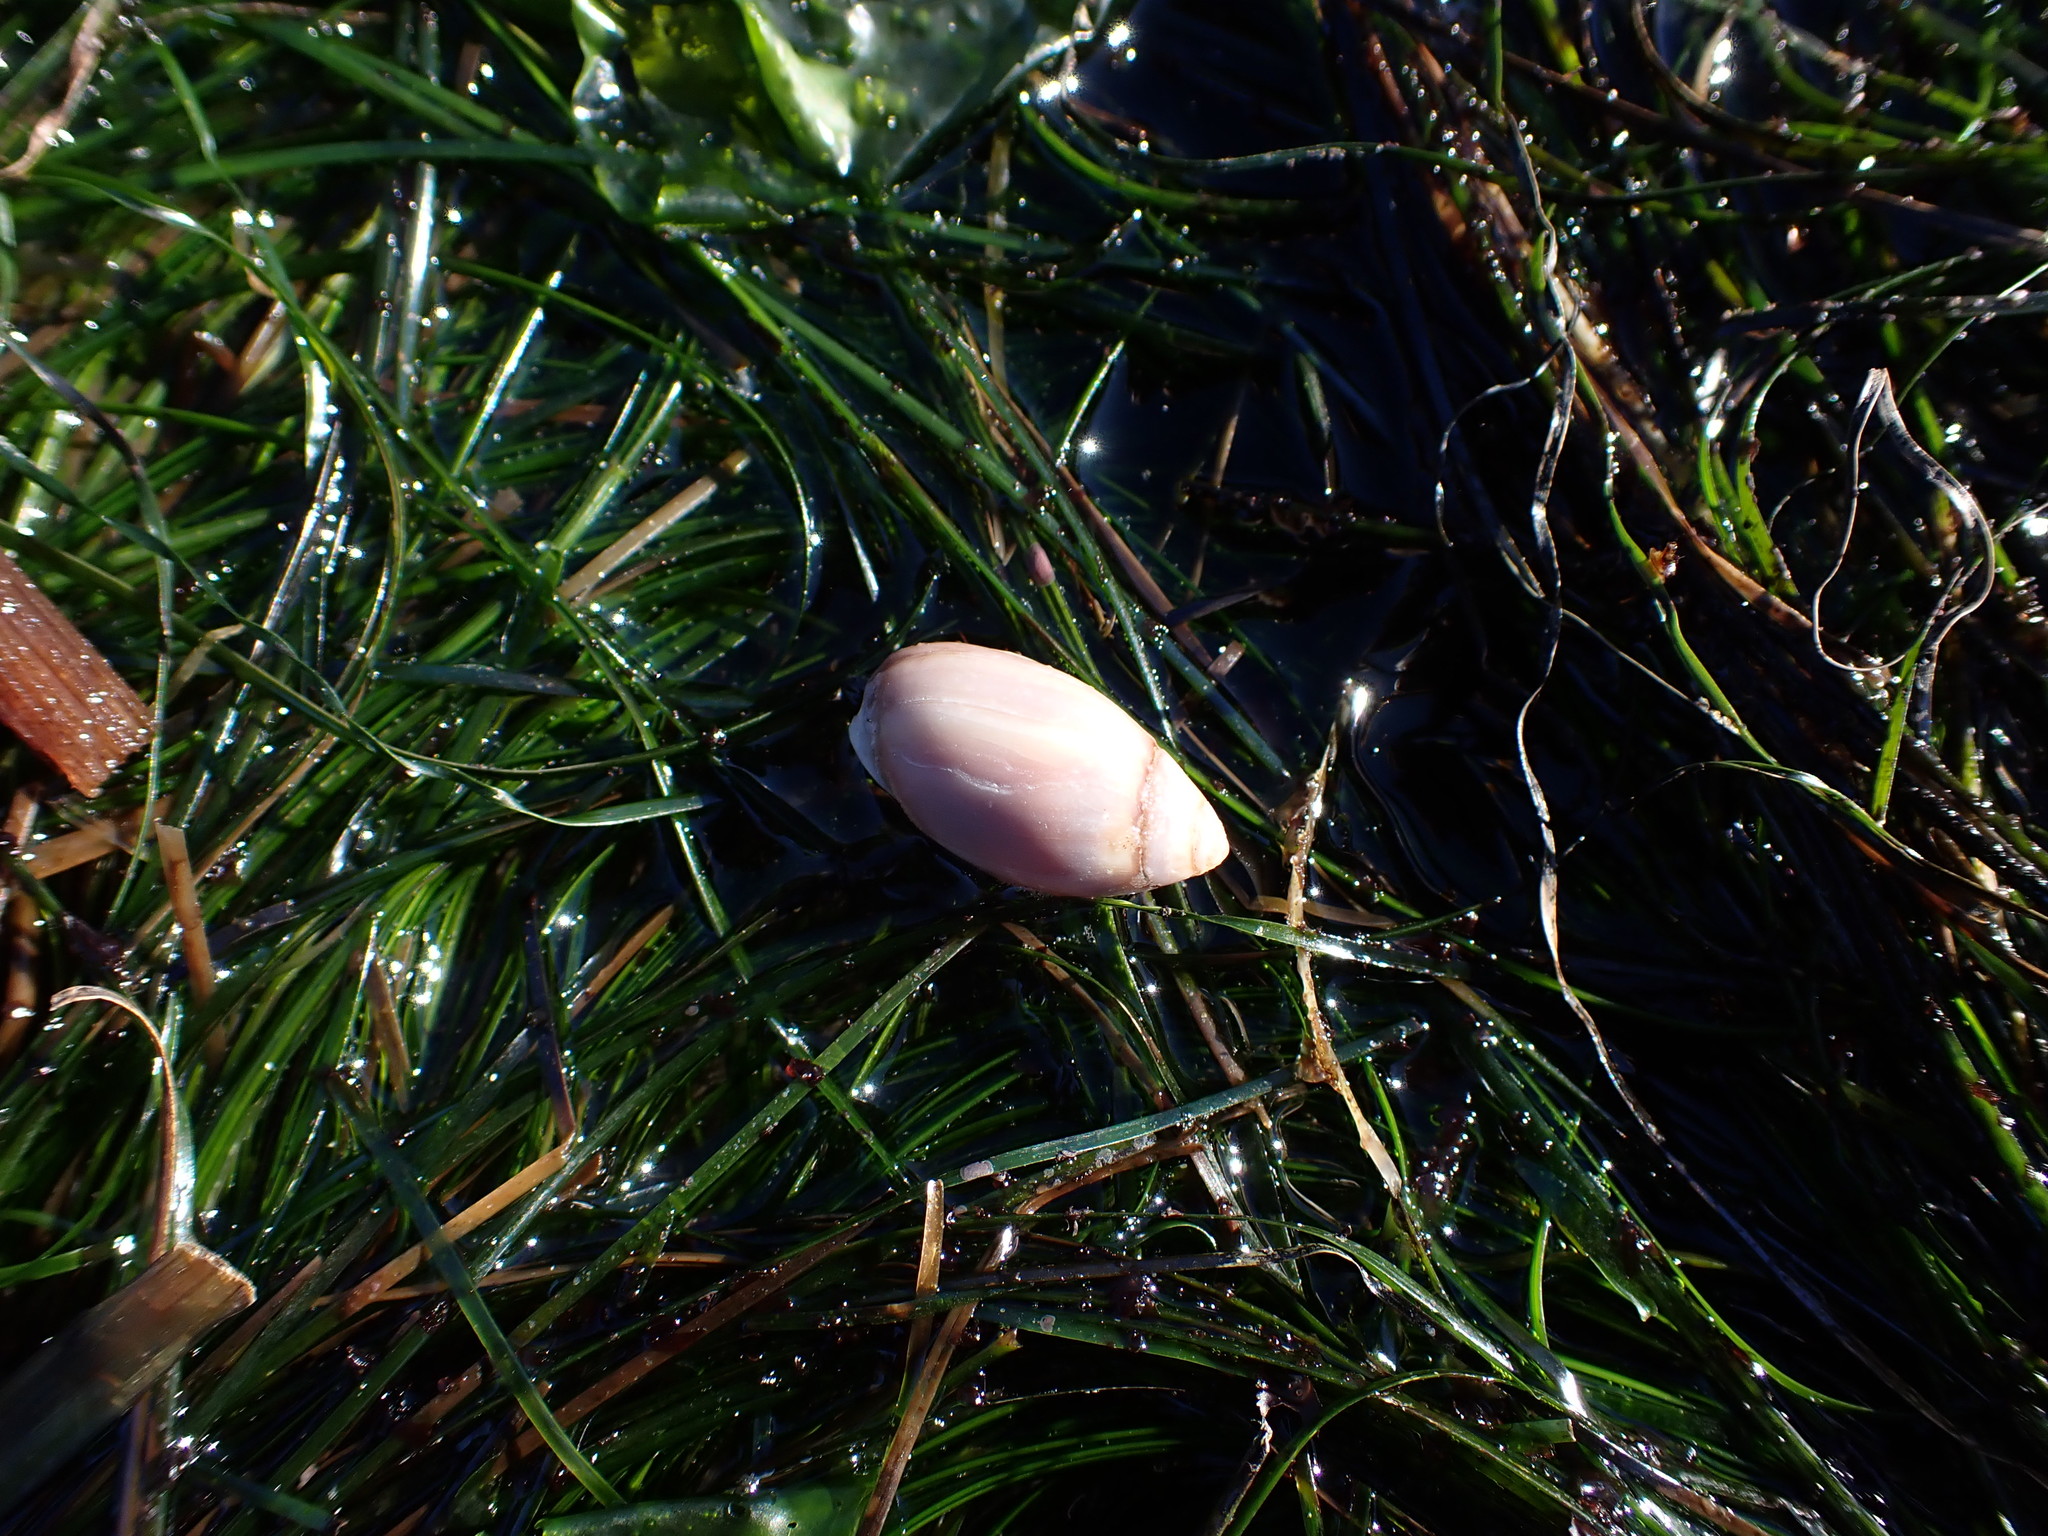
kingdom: Animalia
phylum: Mollusca
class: Gastropoda
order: Neogastropoda
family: Olividae
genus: Callianax
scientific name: Callianax biplicata
